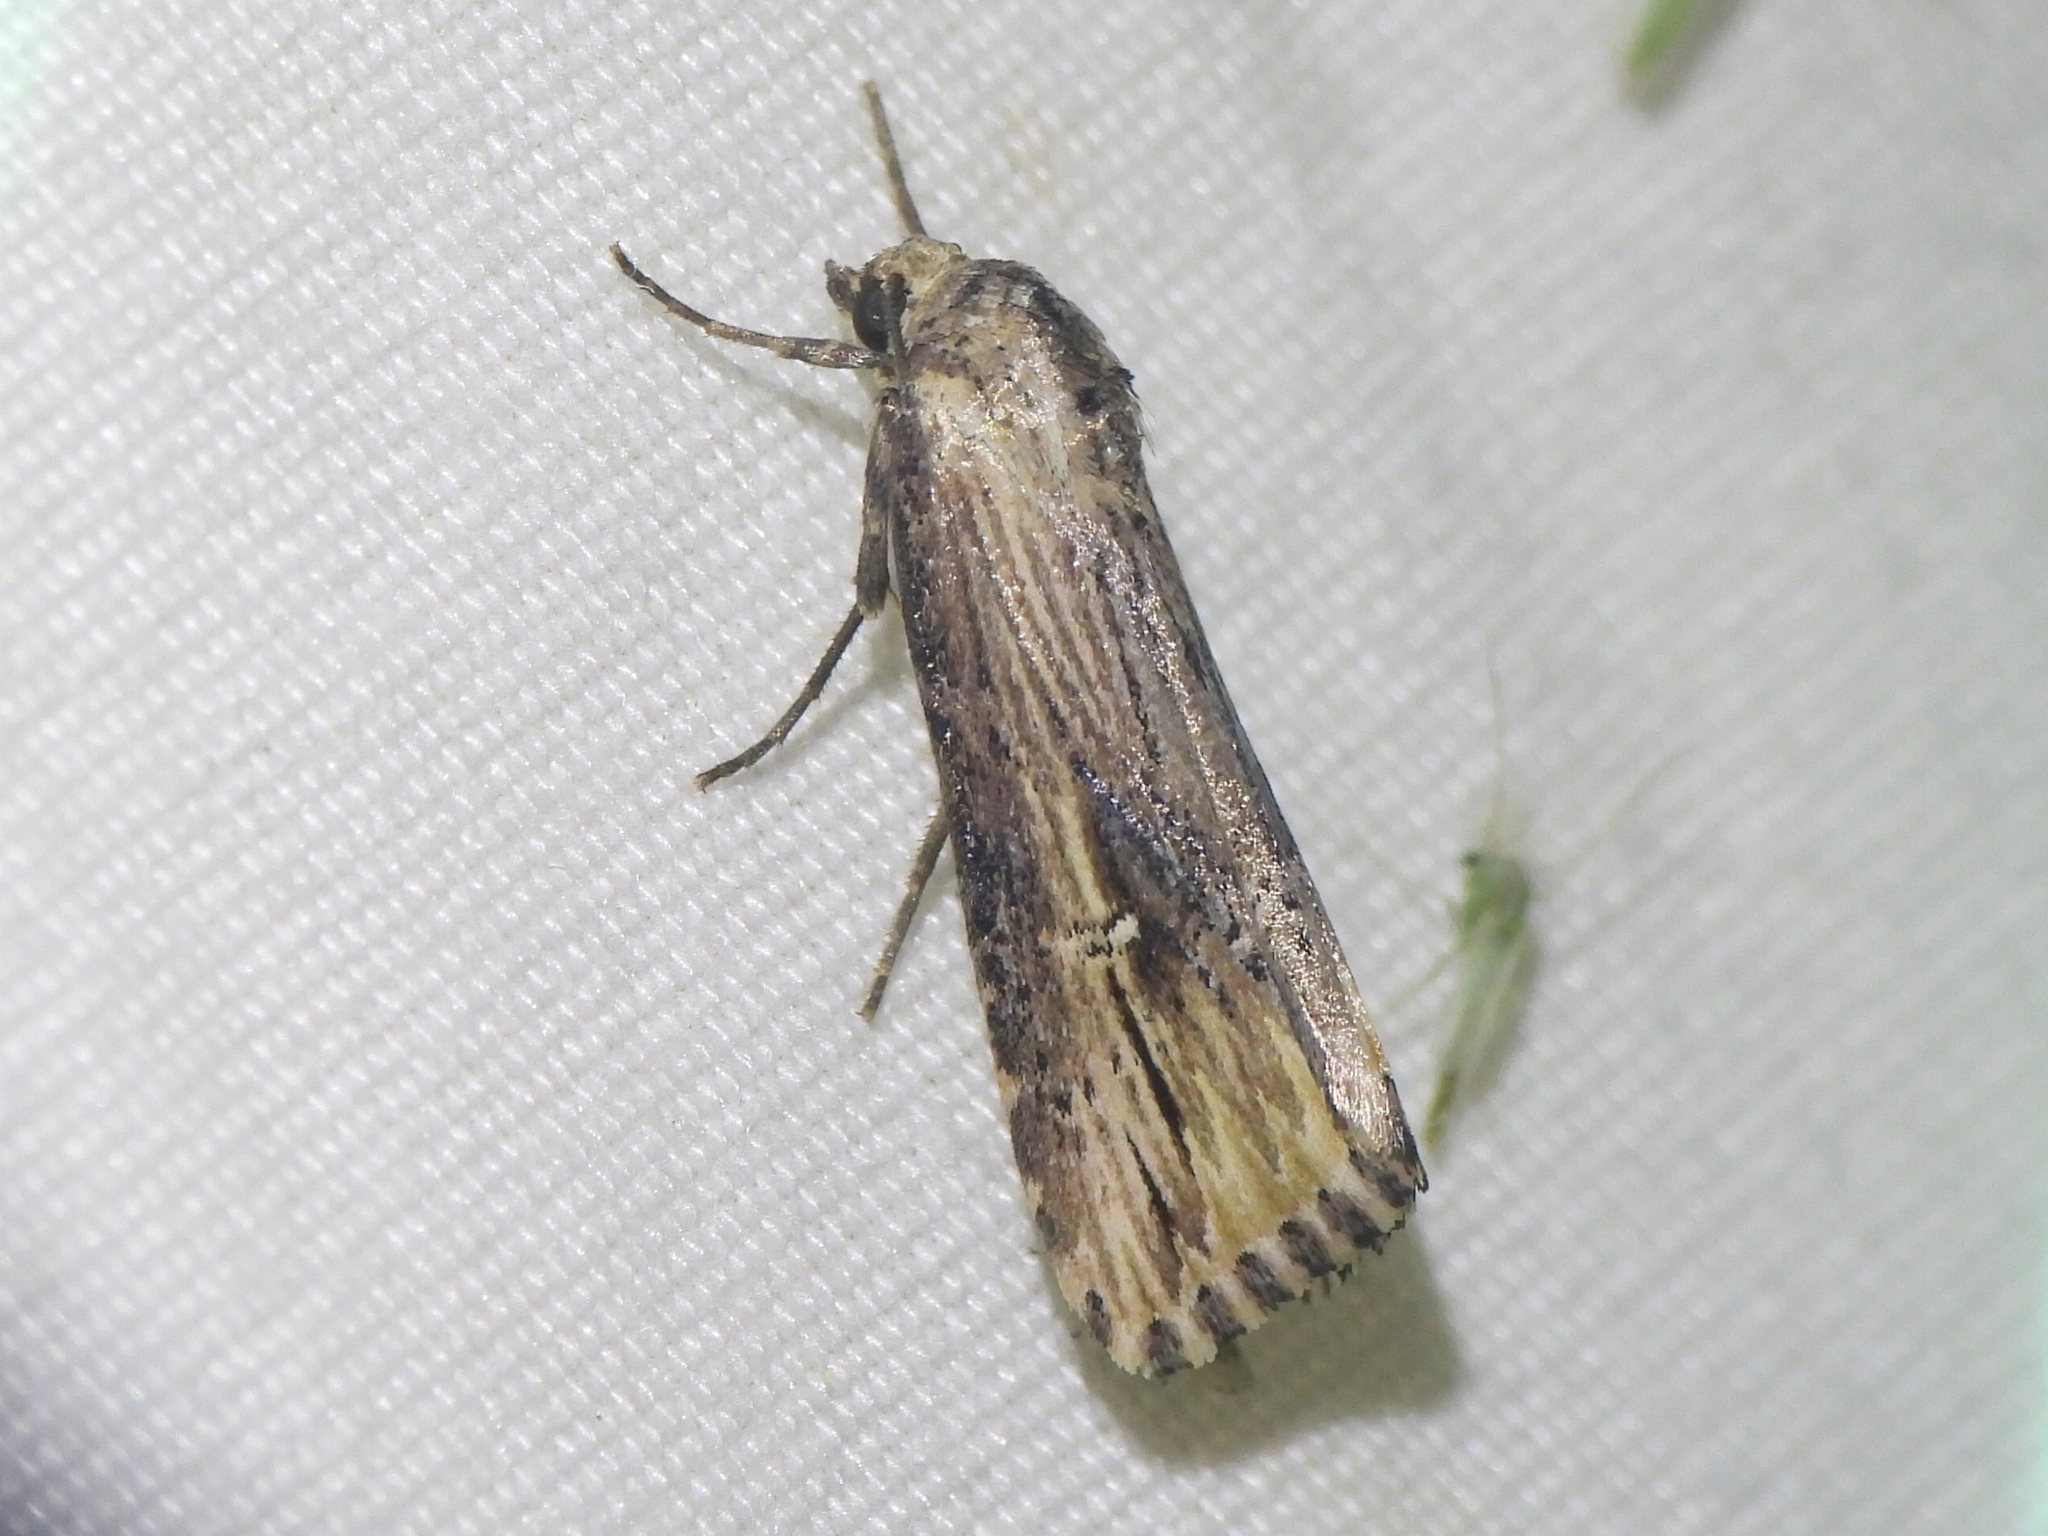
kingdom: Animalia
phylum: Arthropoda
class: Insecta
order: Lepidoptera
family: Noctuidae
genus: Crambodes
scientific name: Crambodes talidiformis
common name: Verbena moth
